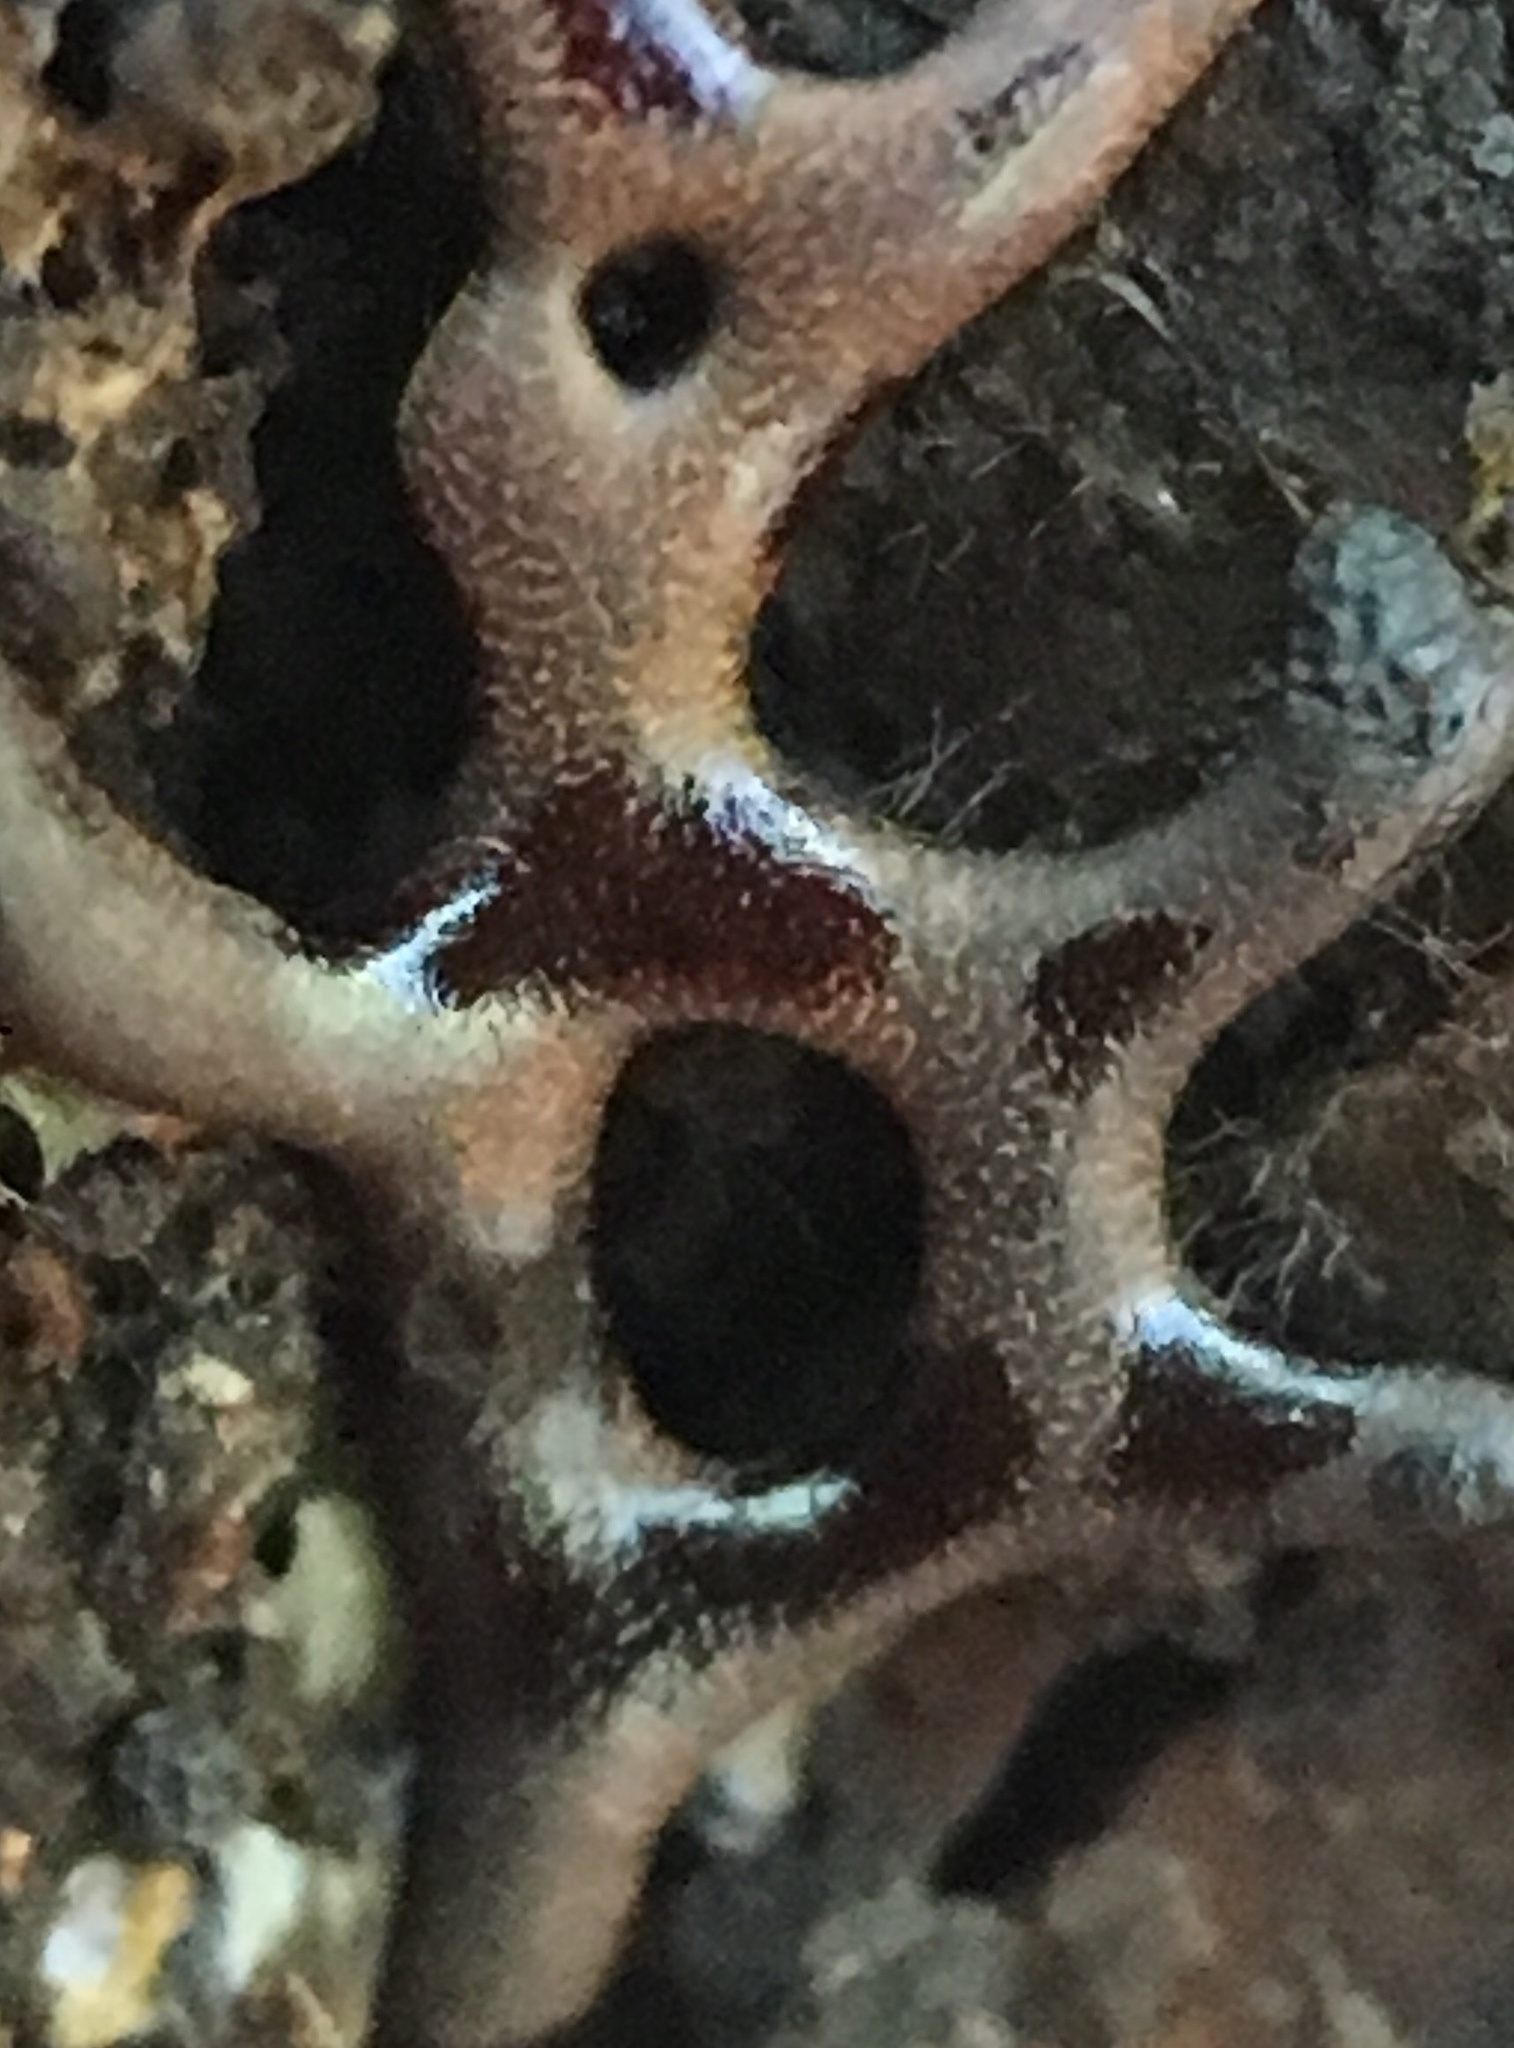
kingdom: Protozoa
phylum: Mycetozoa
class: Myxomycetes
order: Physarales
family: Physaraceae
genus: Willkommlangea
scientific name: Willkommlangea reticulata
